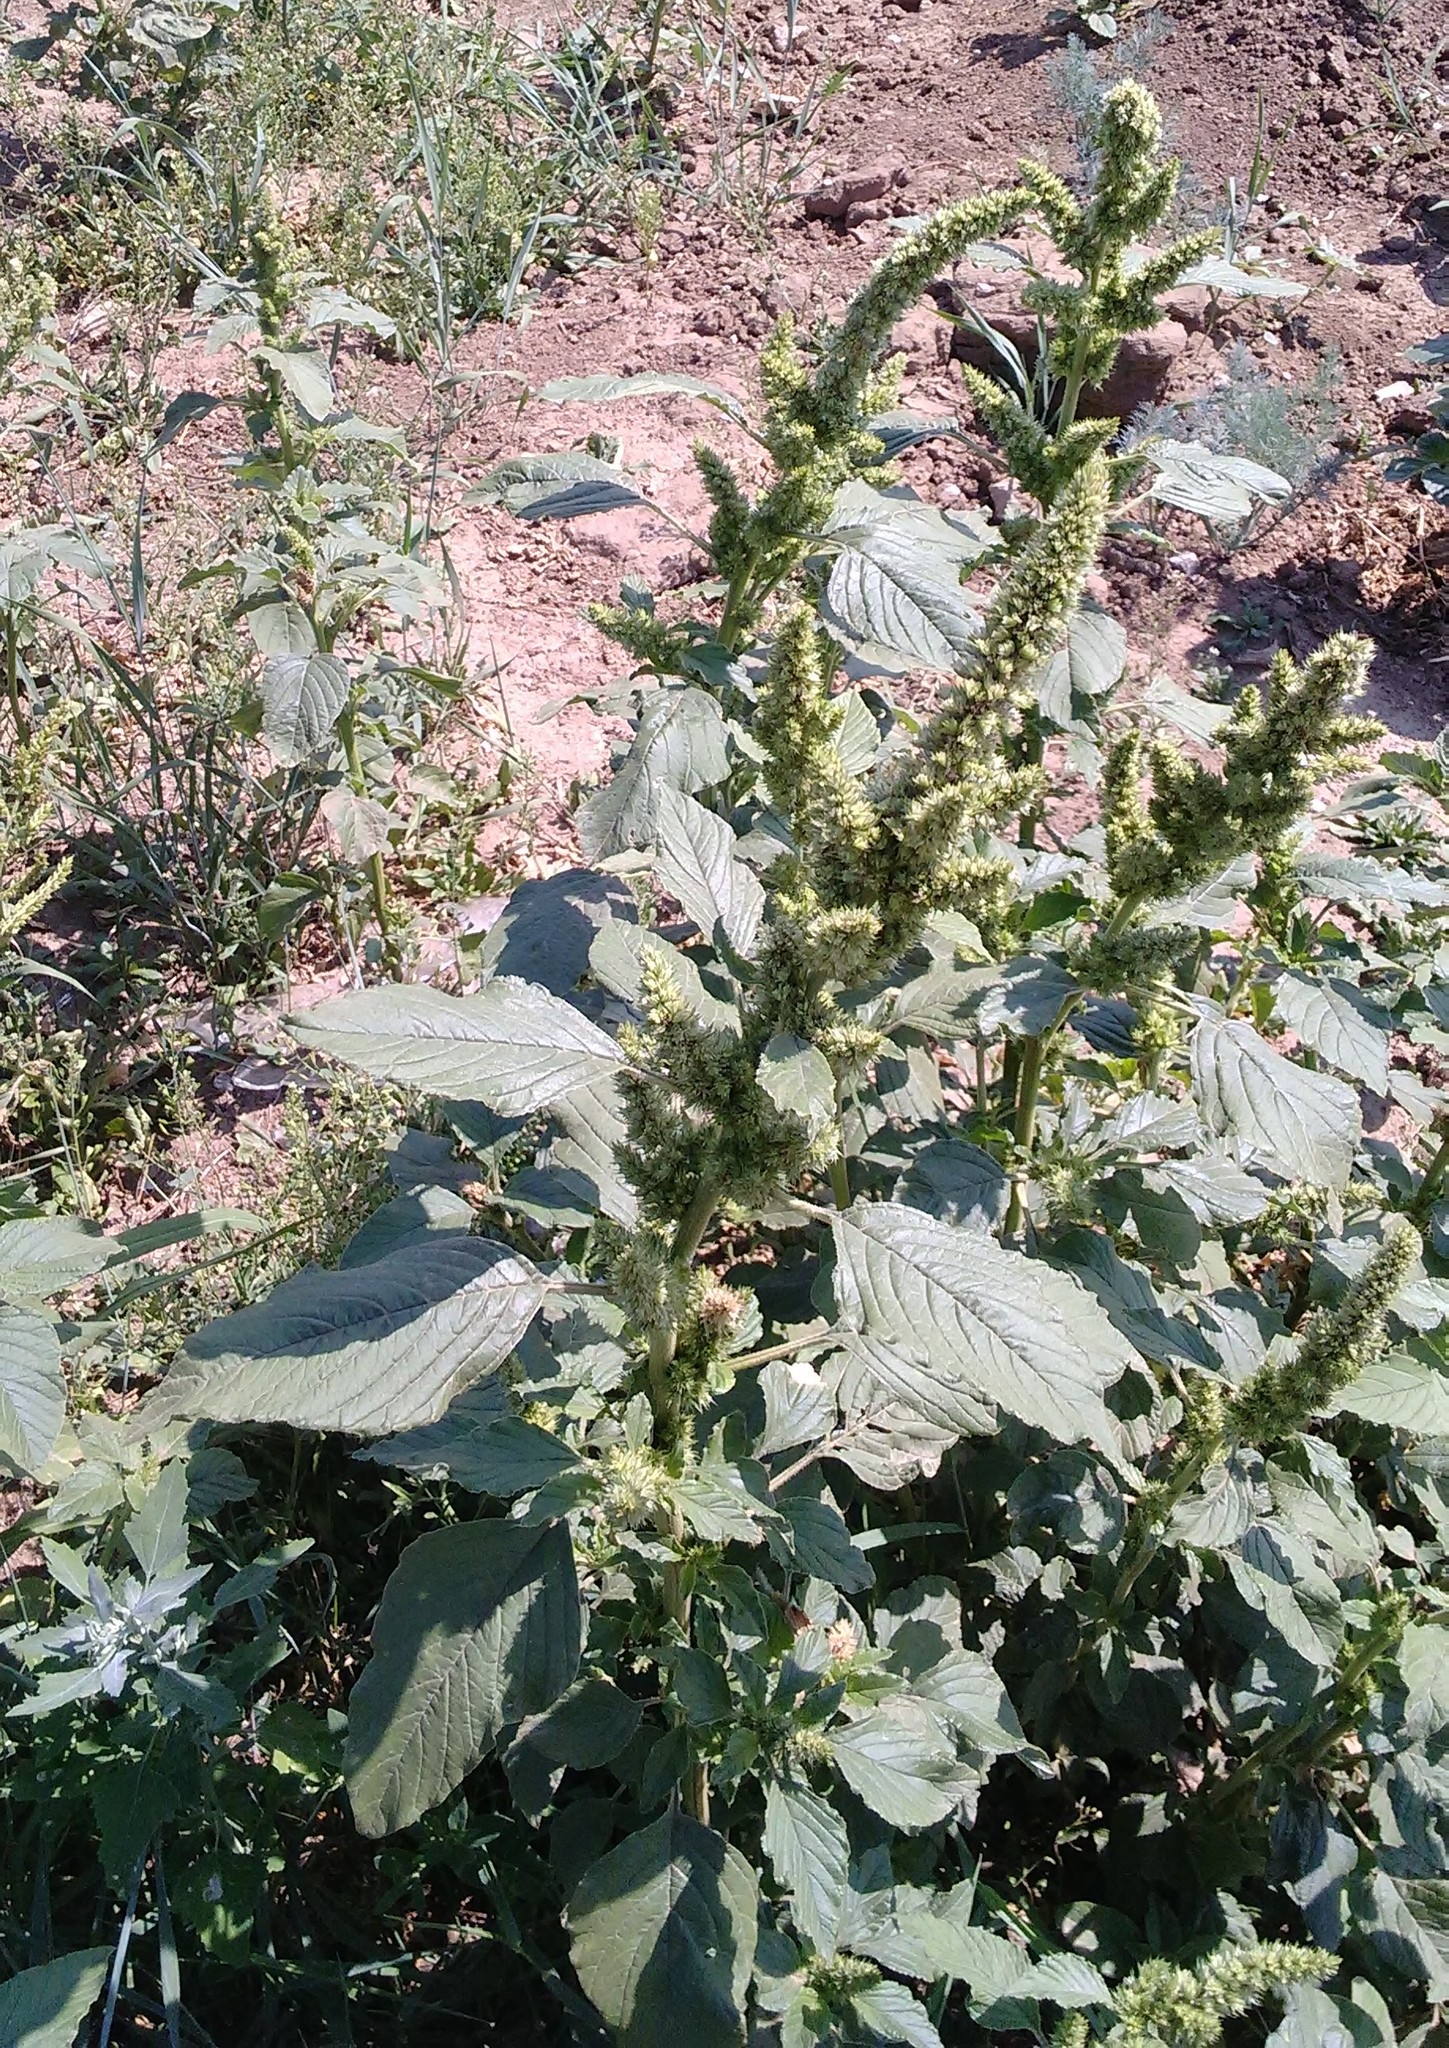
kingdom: Plantae
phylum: Tracheophyta
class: Magnoliopsida
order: Caryophyllales
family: Amaranthaceae
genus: Amaranthus
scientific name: Amaranthus retroflexus
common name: Redroot amaranth
